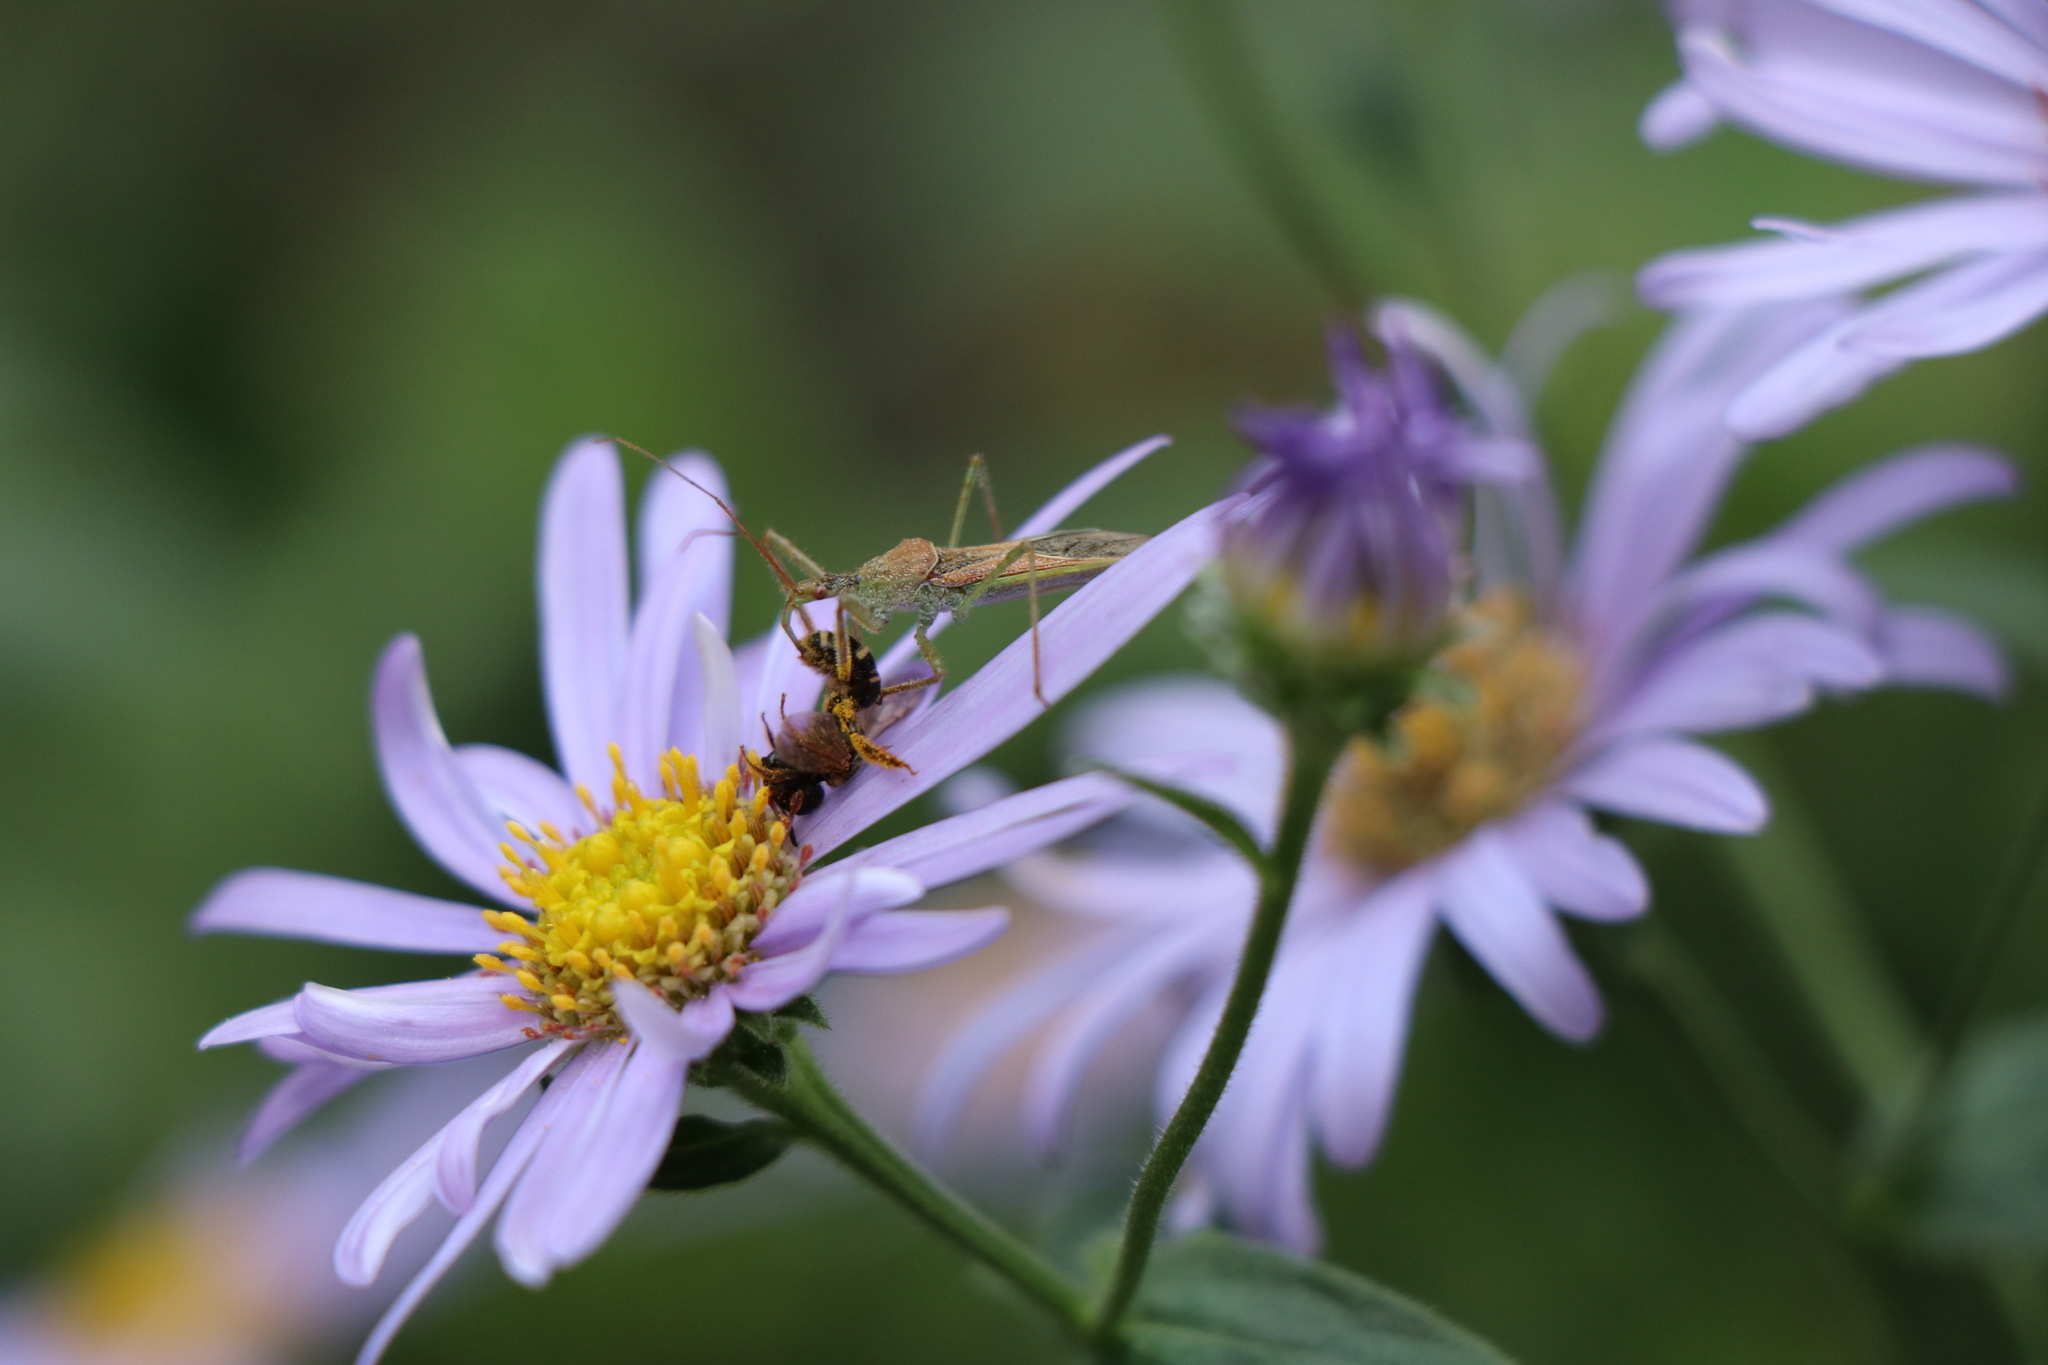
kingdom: Animalia
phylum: Arthropoda
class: Insecta
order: Hemiptera
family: Reduviidae
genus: Zelus
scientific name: Zelus renardii
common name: Assassin bug
